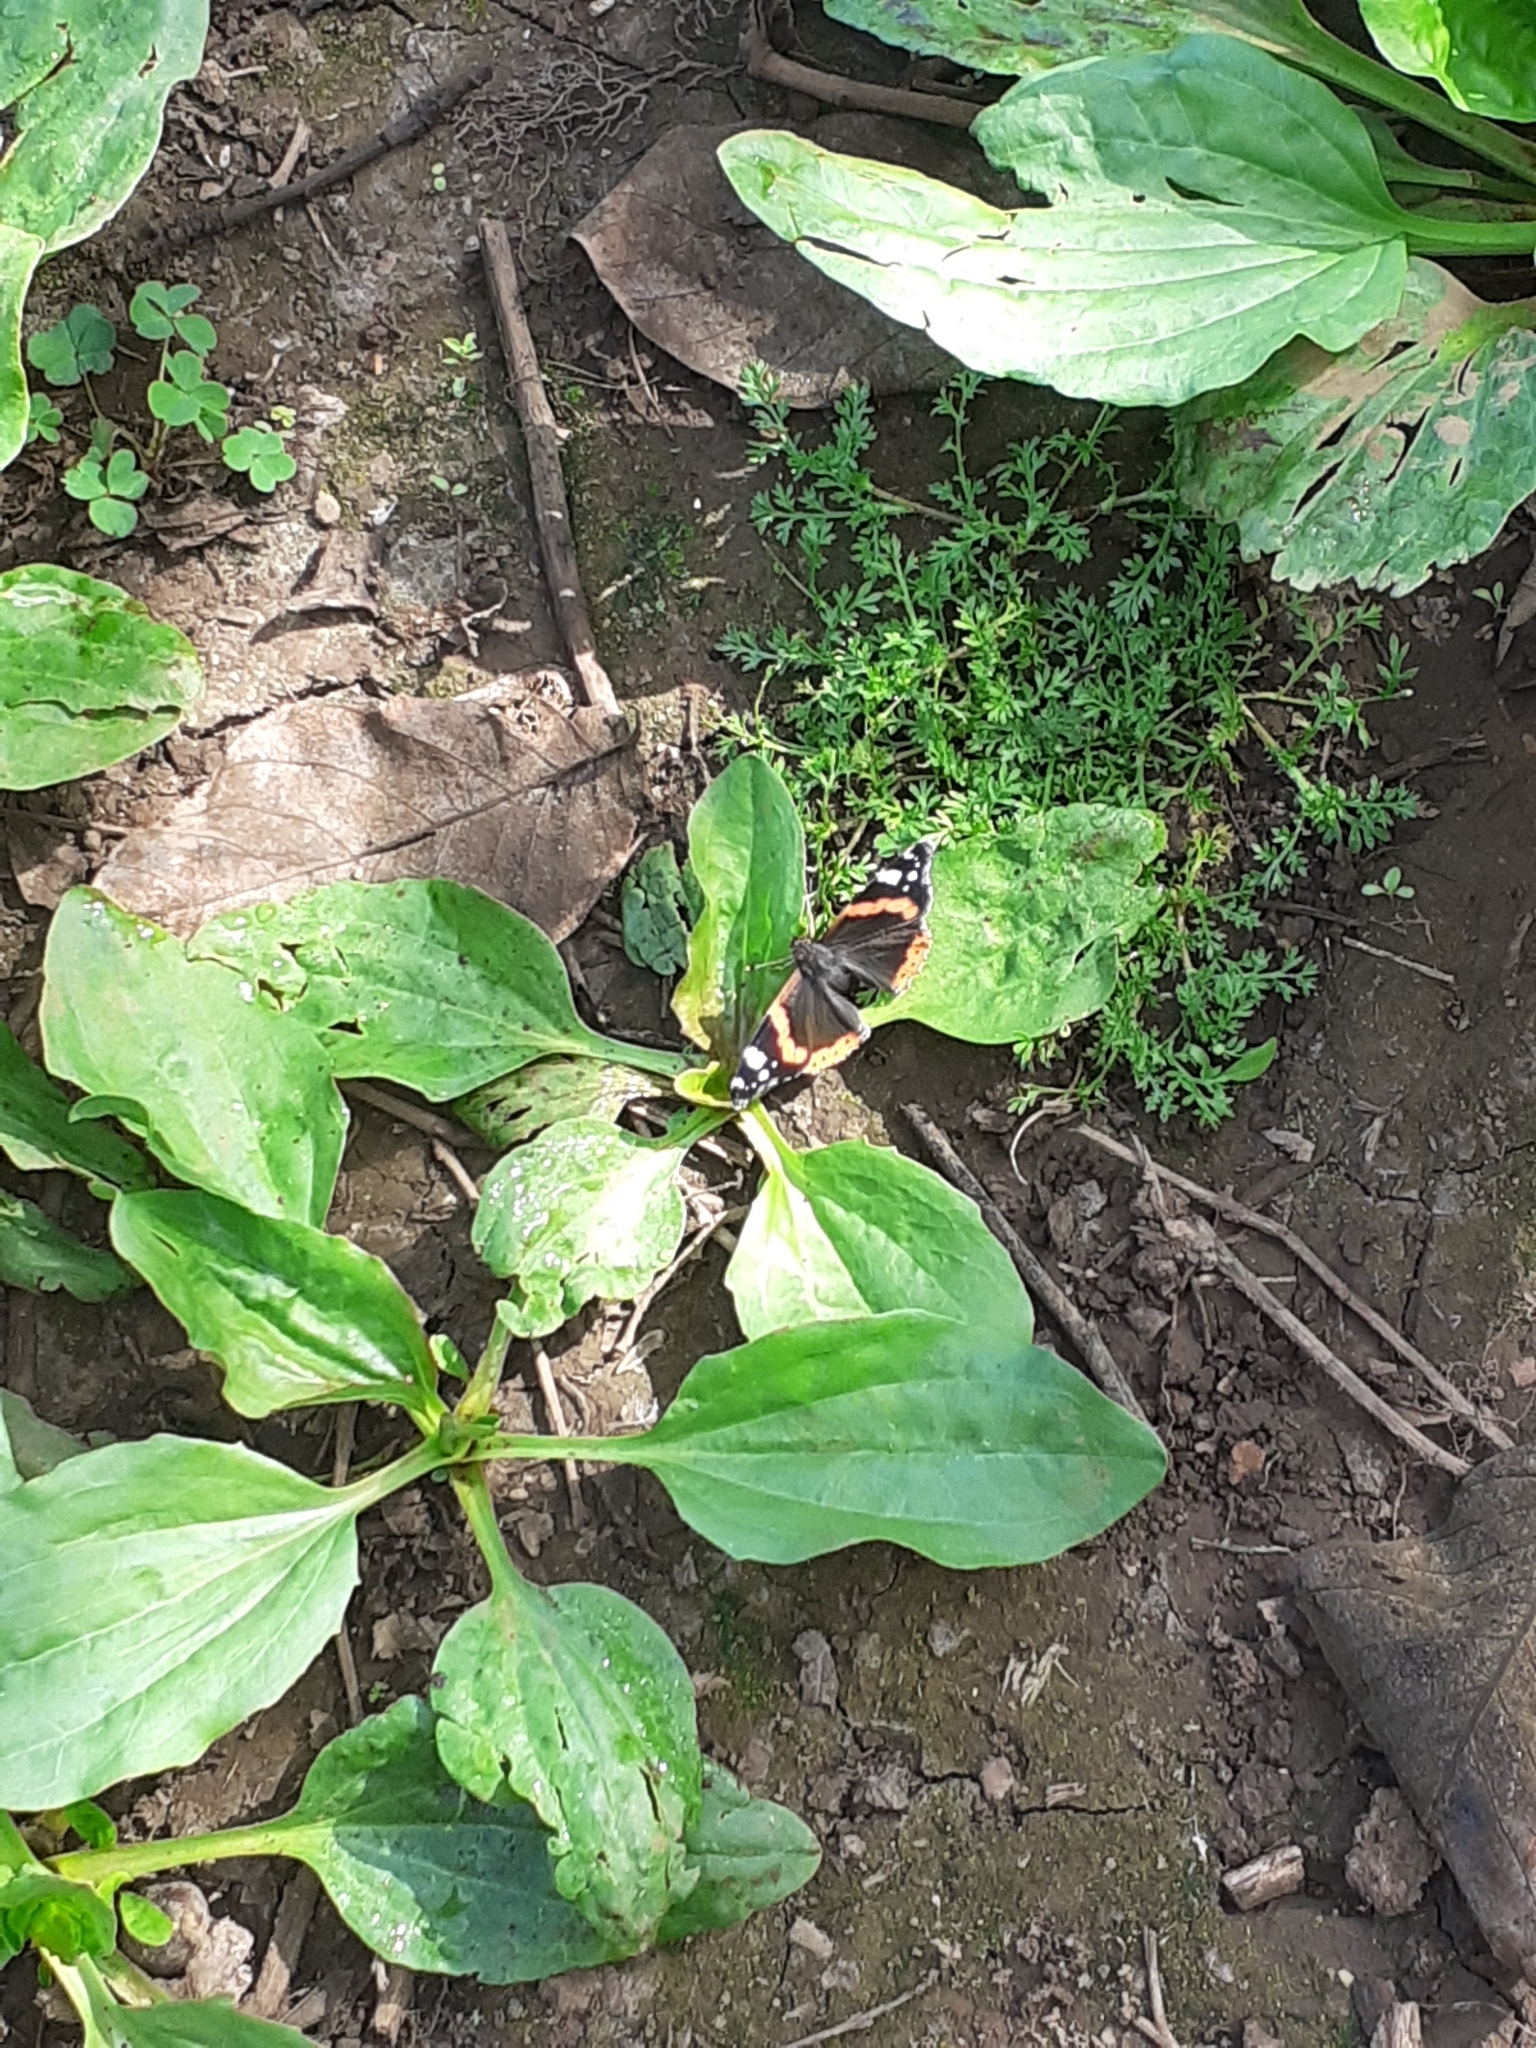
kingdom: Animalia
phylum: Arthropoda
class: Insecta
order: Lepidoptera
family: Nymphalidae
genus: Vanessa
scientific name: Vanessa atalanta
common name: Red admiral
